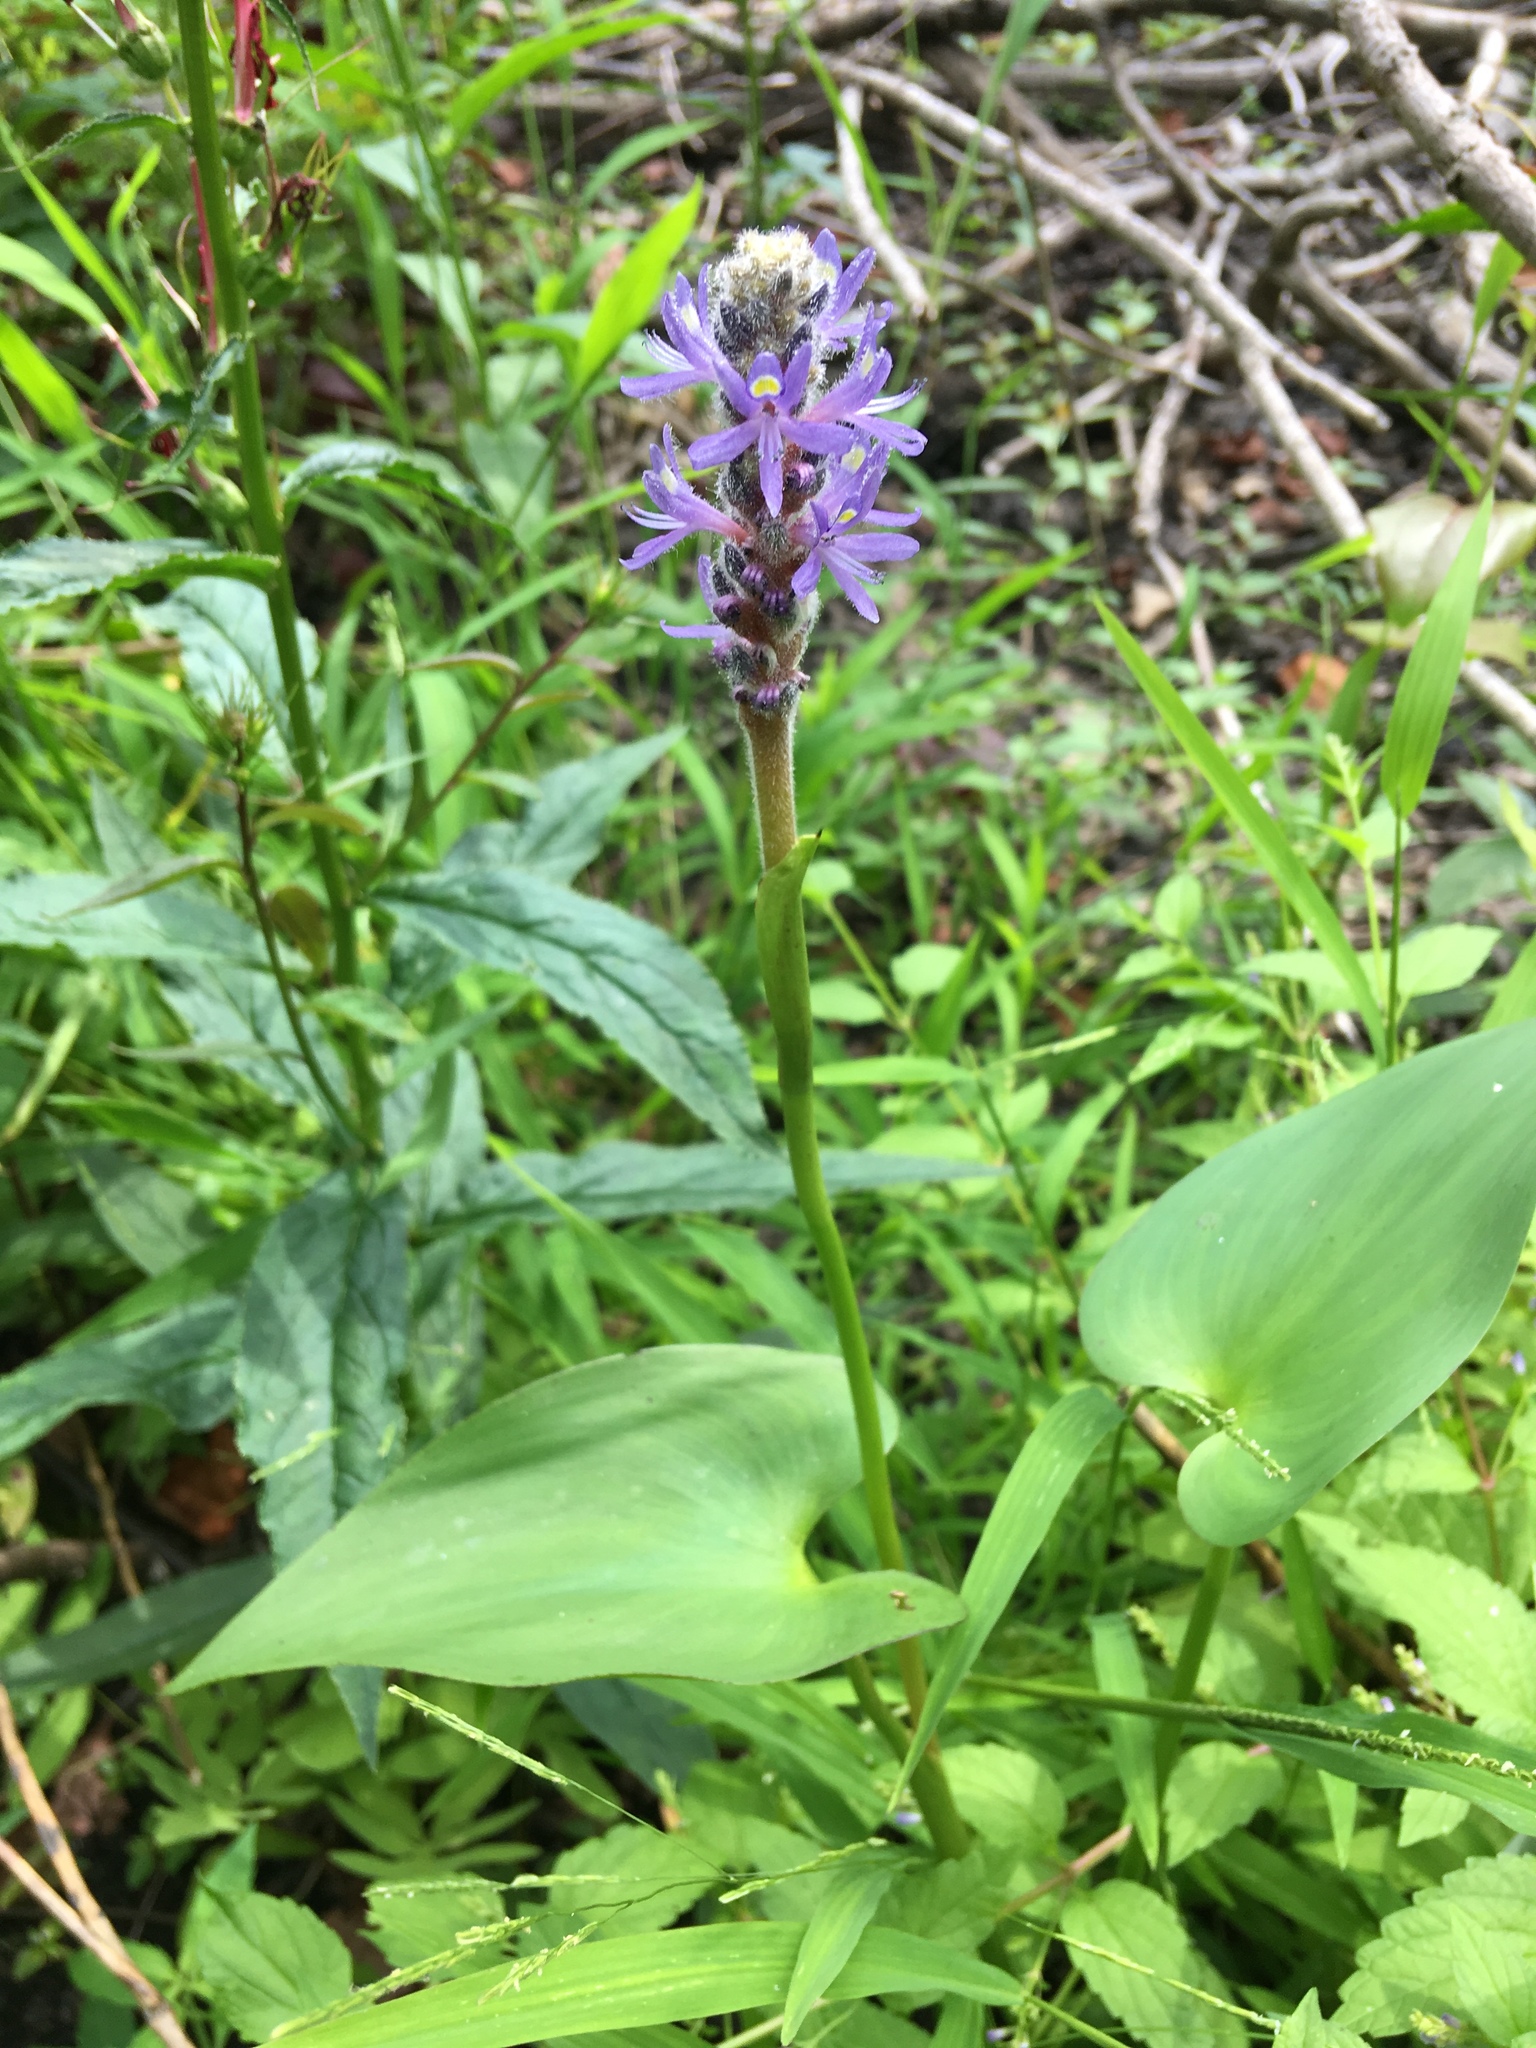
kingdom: Plantae
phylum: Tracheophyta
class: Liliopsida
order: Commelinales
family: Pontederiaceae
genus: Pontederia
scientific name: Pontederia cordata
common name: Pickerelweed
